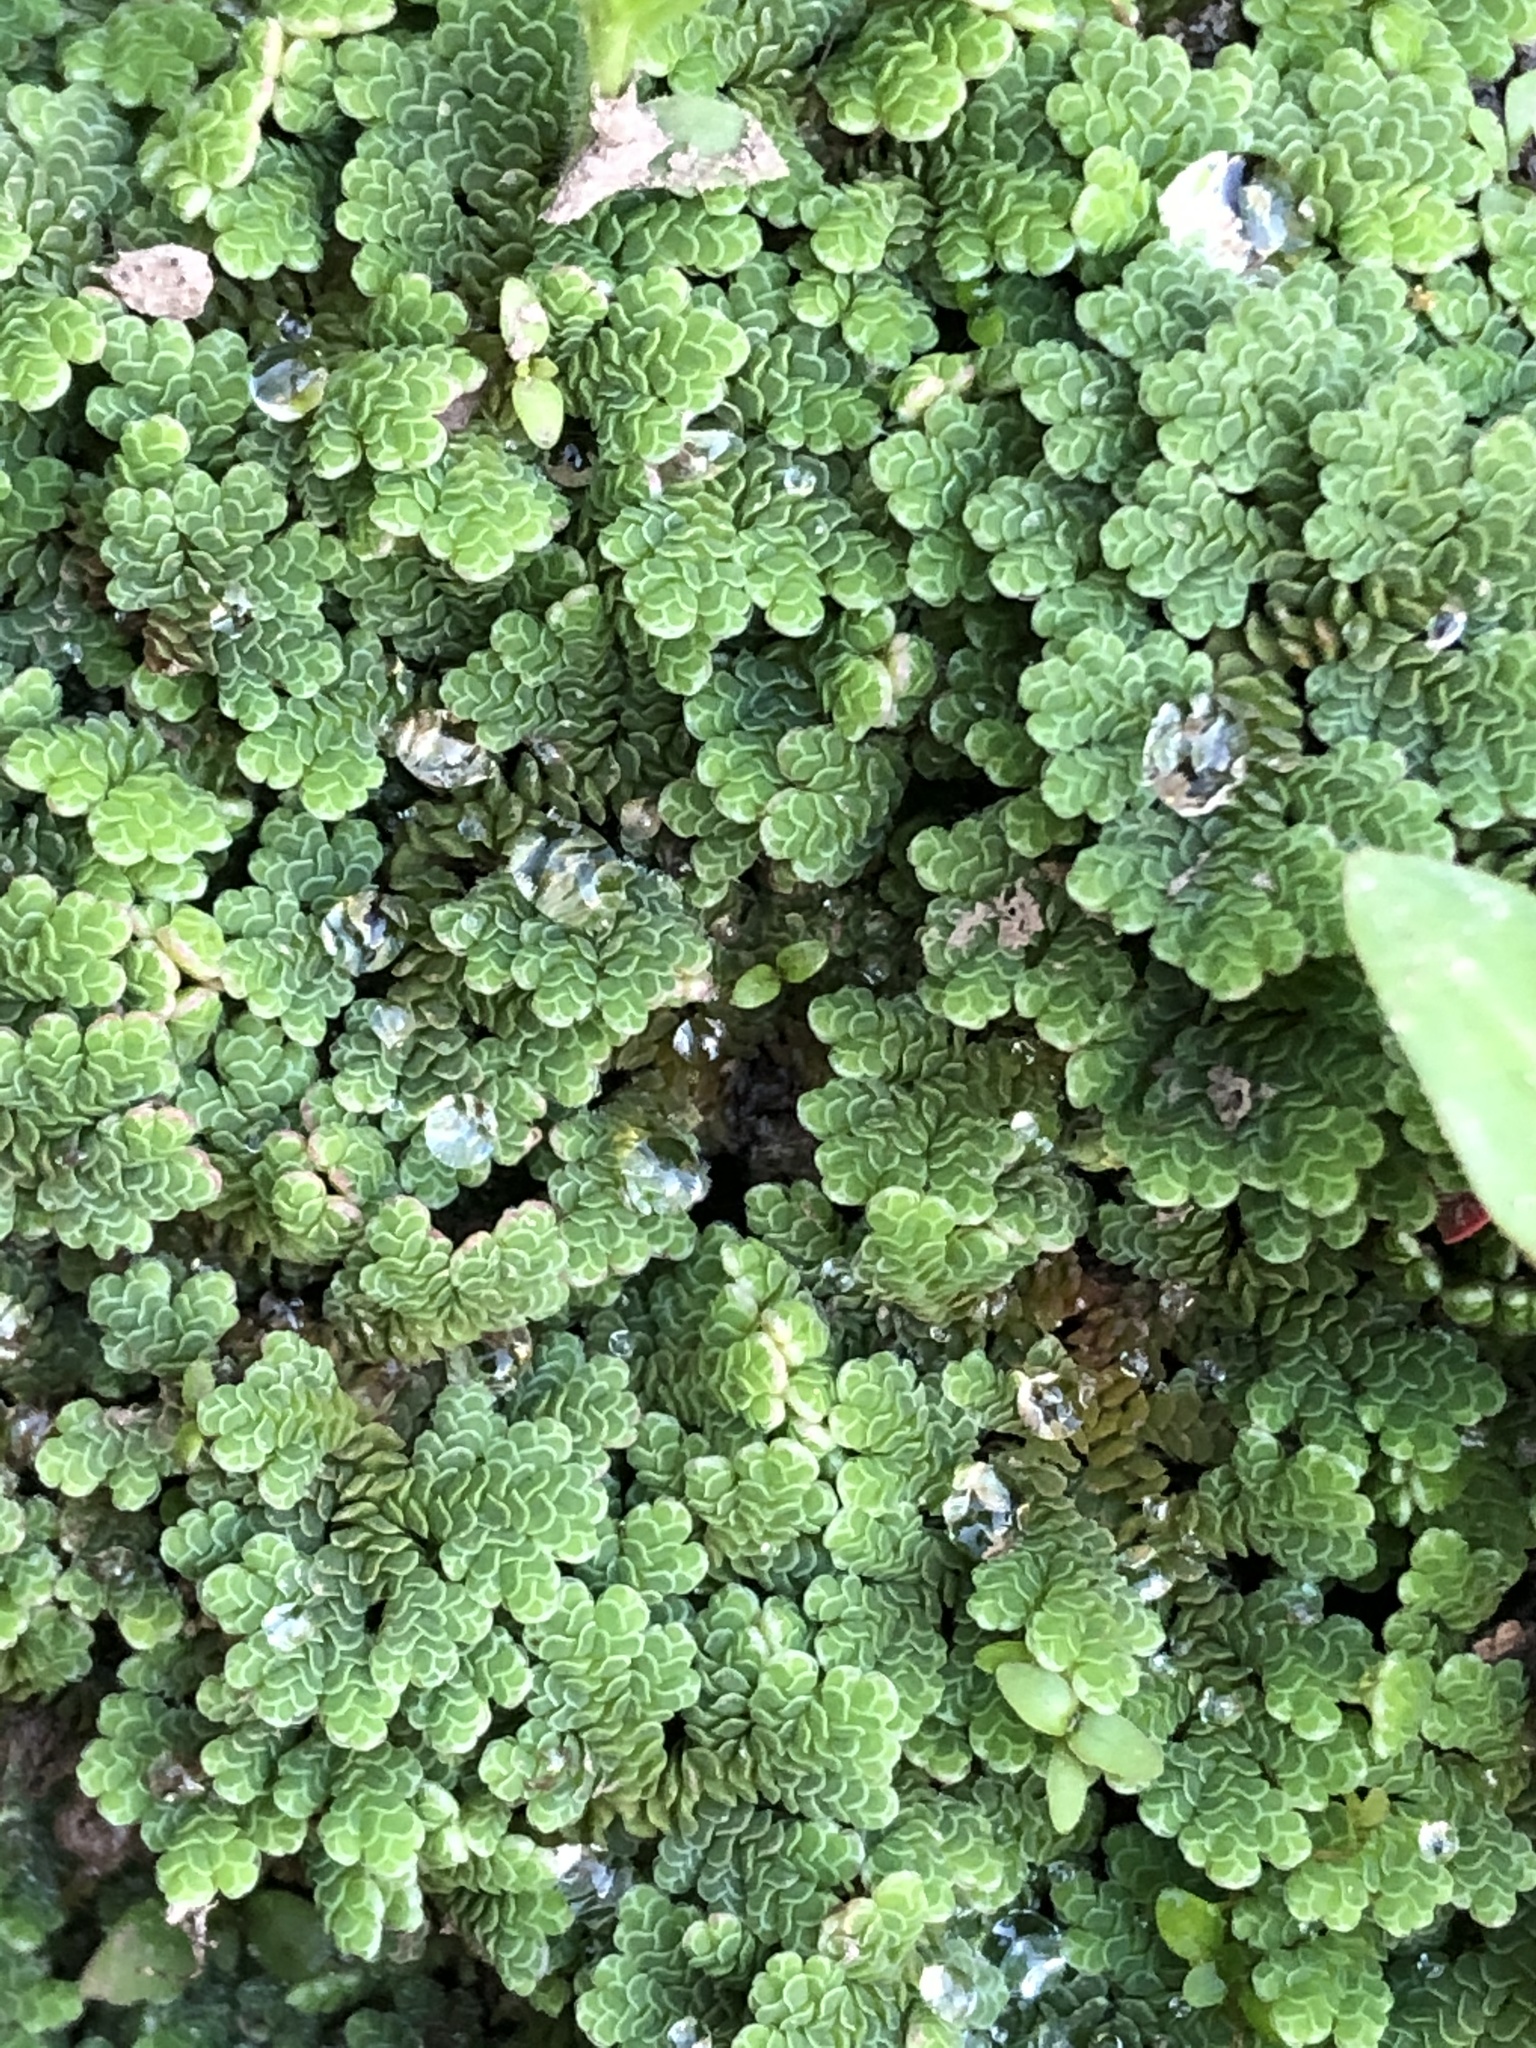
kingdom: Plantae
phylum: Tracheophyta
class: Polypodiopsida
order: Salviniales
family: Salviniaceae
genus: Azolla
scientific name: Azolla filiculoides
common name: Water fern
